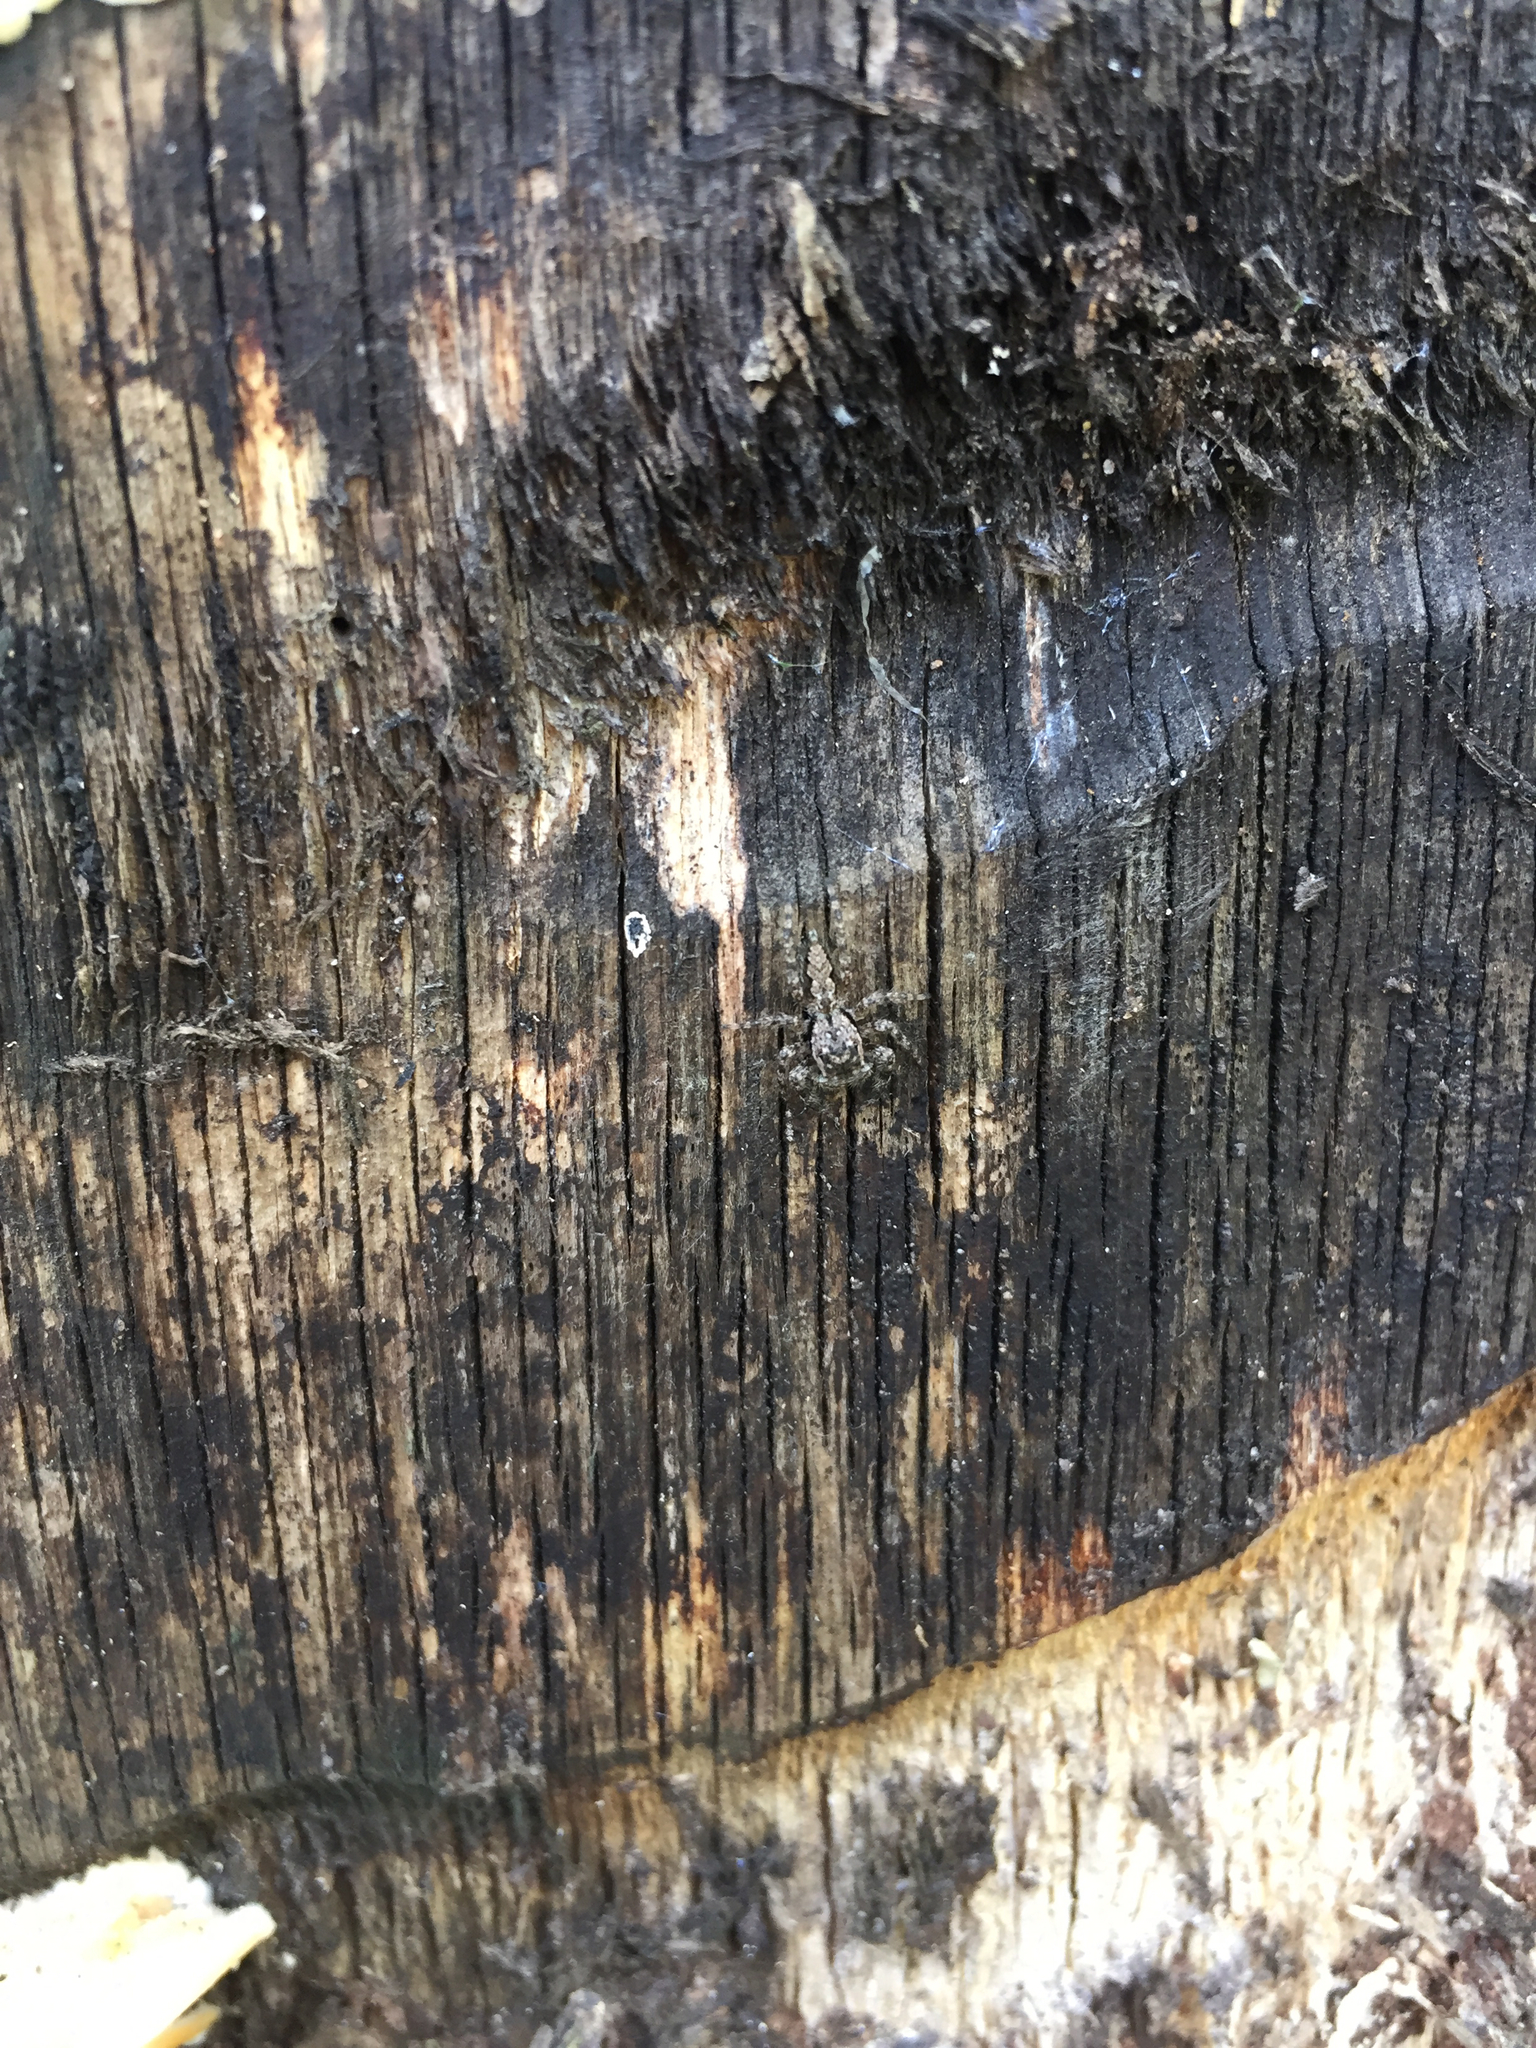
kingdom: Animalia
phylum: Arthropoda
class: Arachnida
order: Araneae
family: Salticidae
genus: Platycryptus
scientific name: Platycryptus undatus
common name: Tan jumping spider
